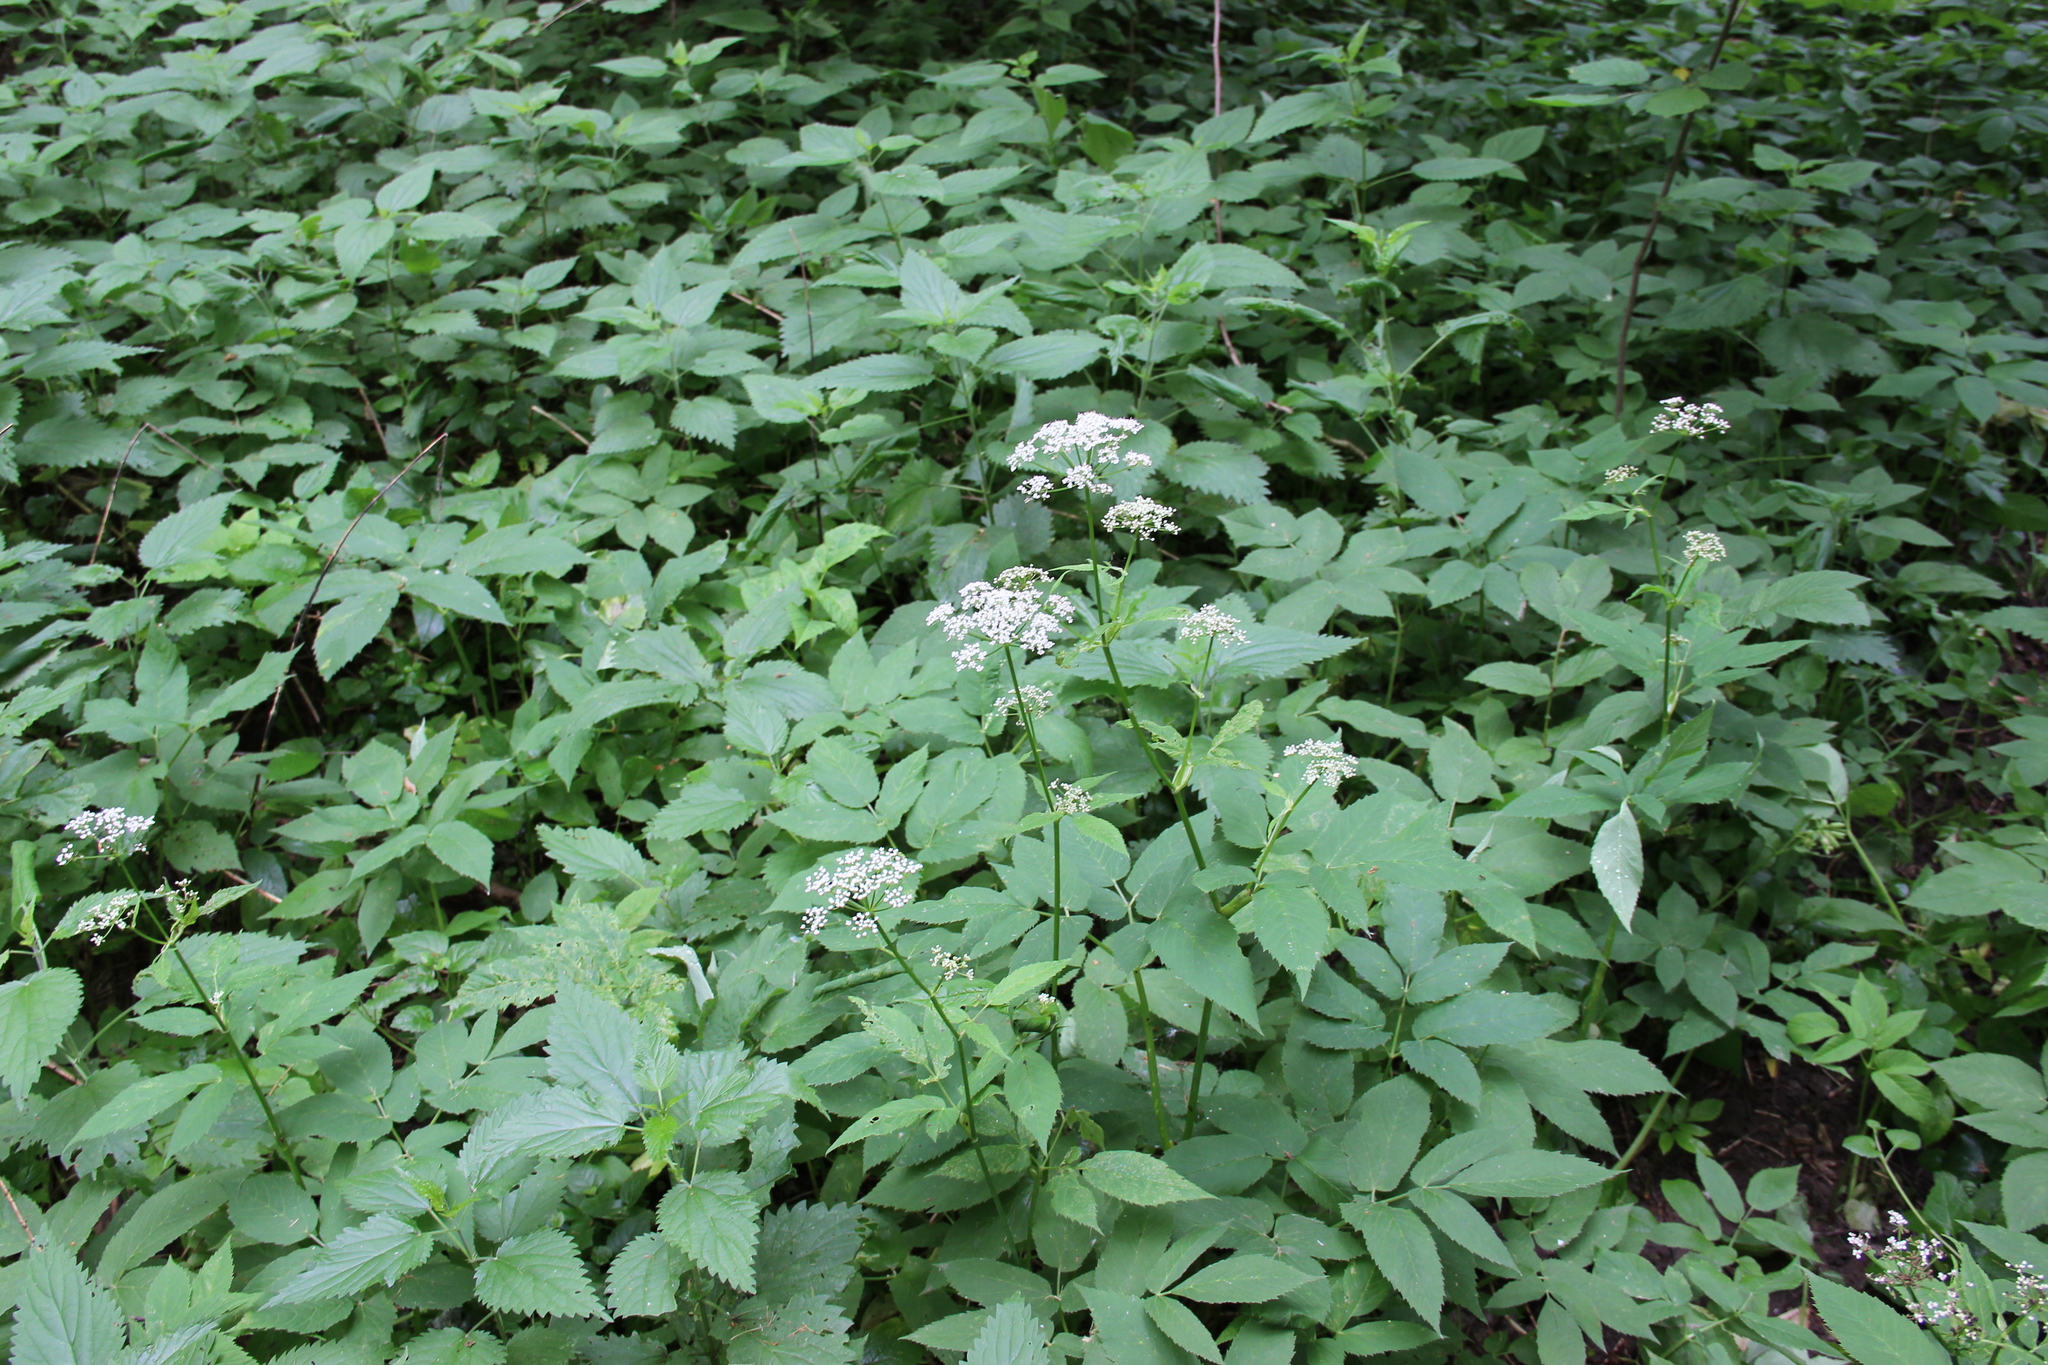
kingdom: Plantae
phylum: Tracheophyta
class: Magnoliopsida
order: Apiales
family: Apiaceae
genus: Aegopodium
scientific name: Aegopodium podagraria
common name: Ground-elder
